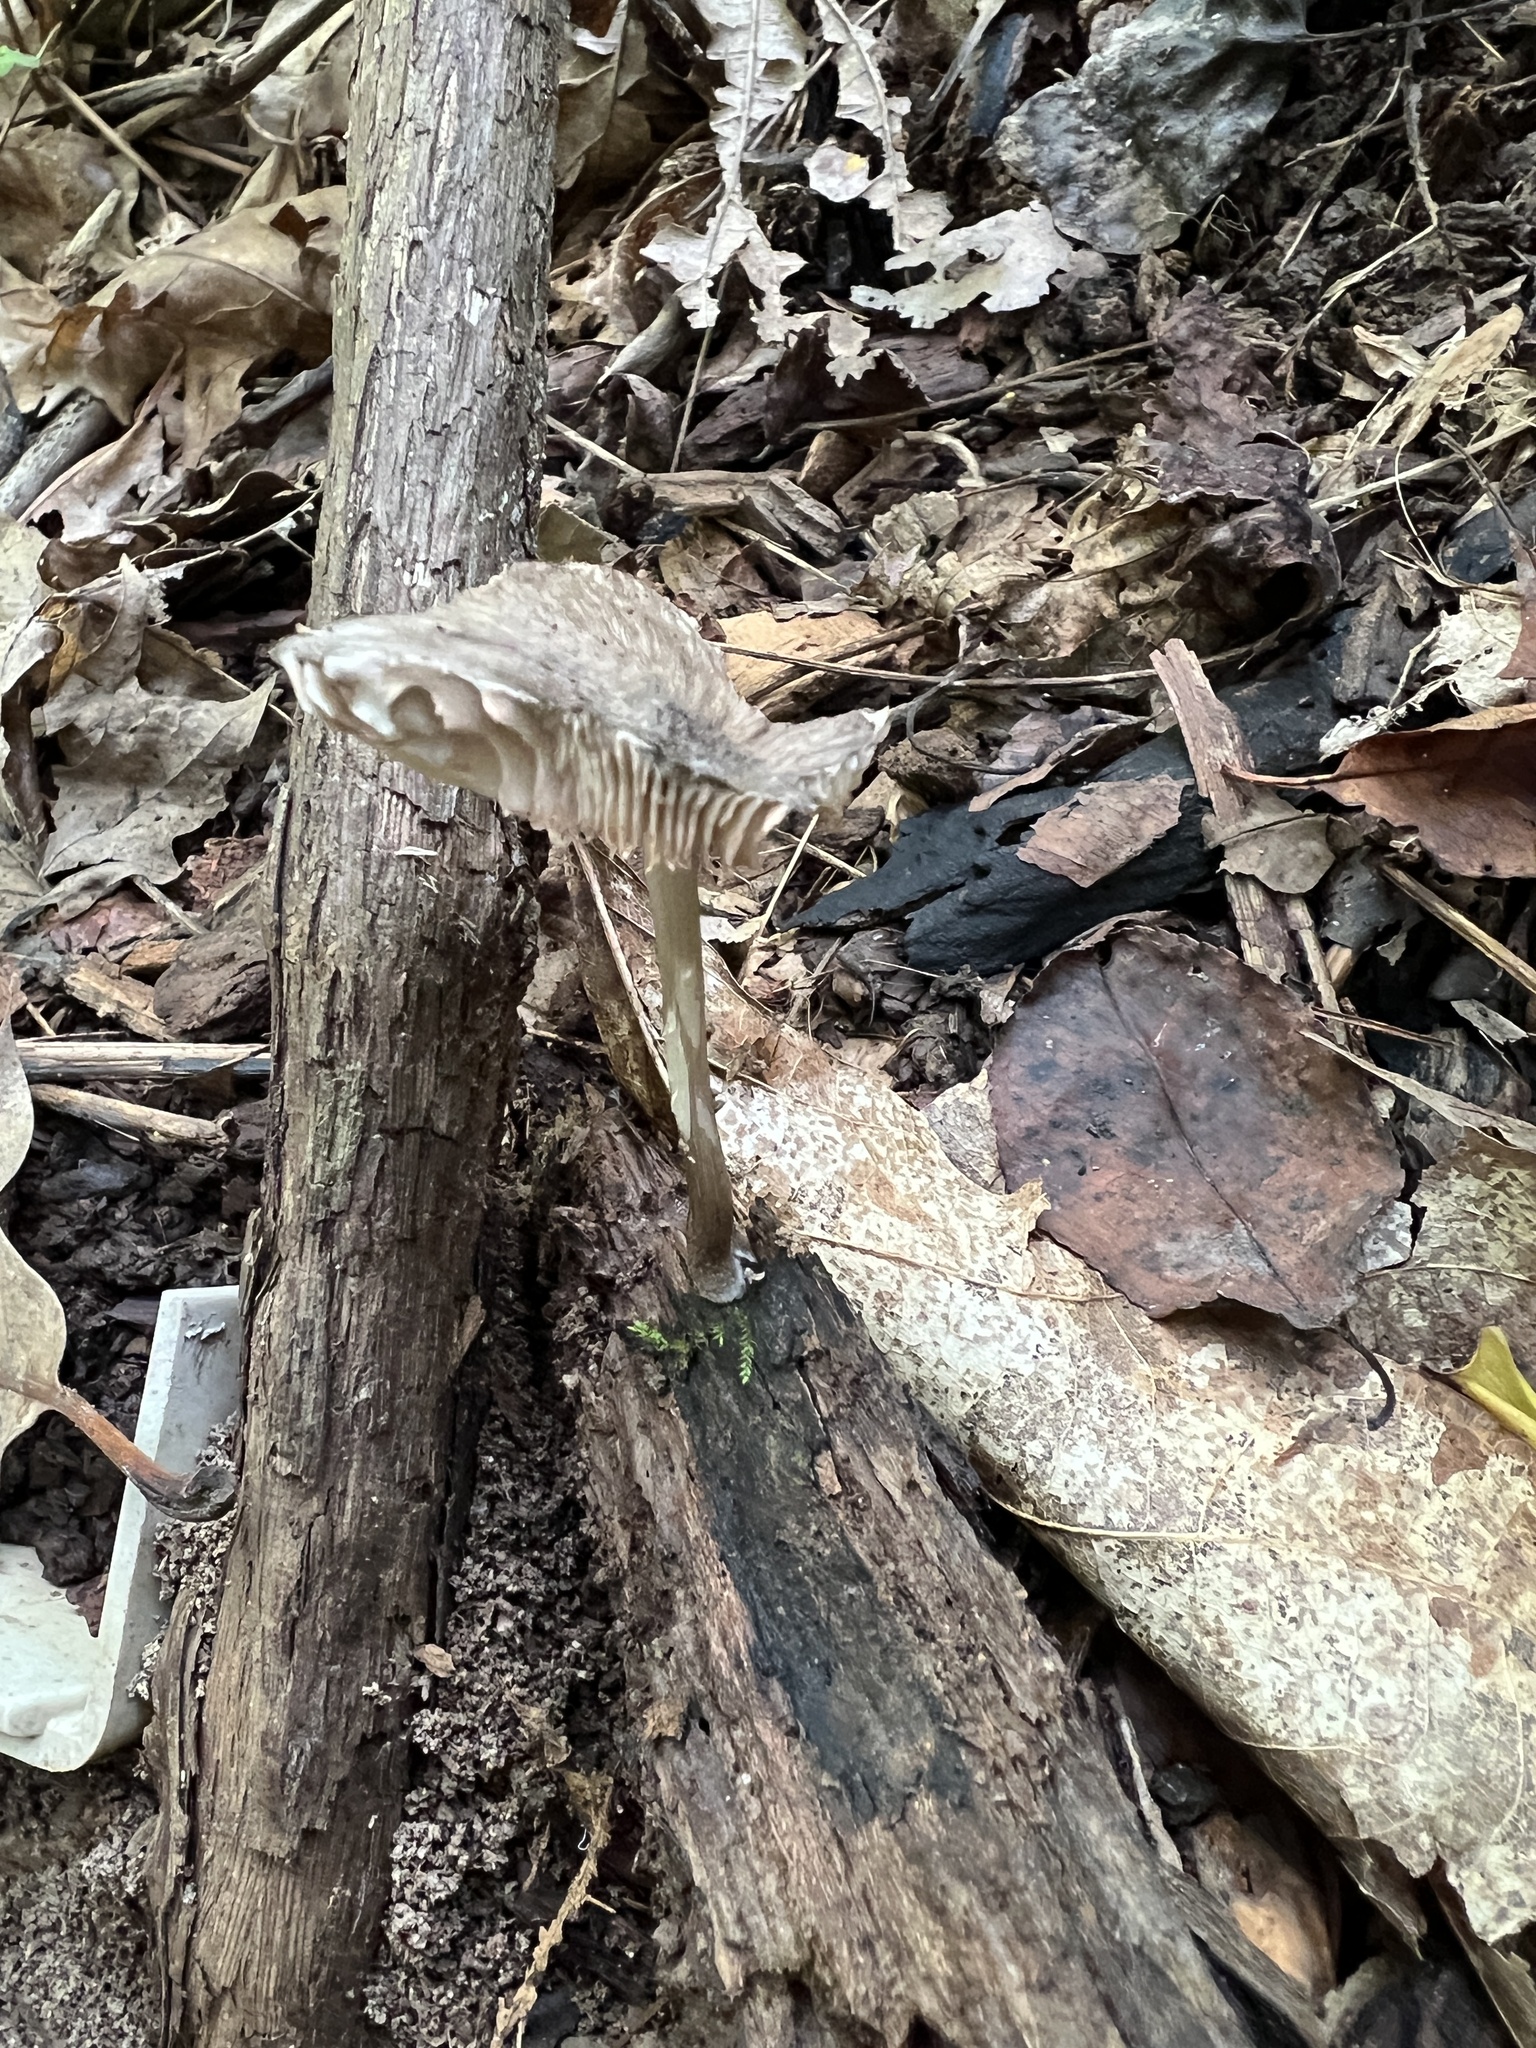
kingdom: Fungi
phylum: Basidiomycota
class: Agaricomycetes
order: Agaricales
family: Pluteaceae
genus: Pluteus
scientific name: Pluteus atromarginatus
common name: Blackedged shield
